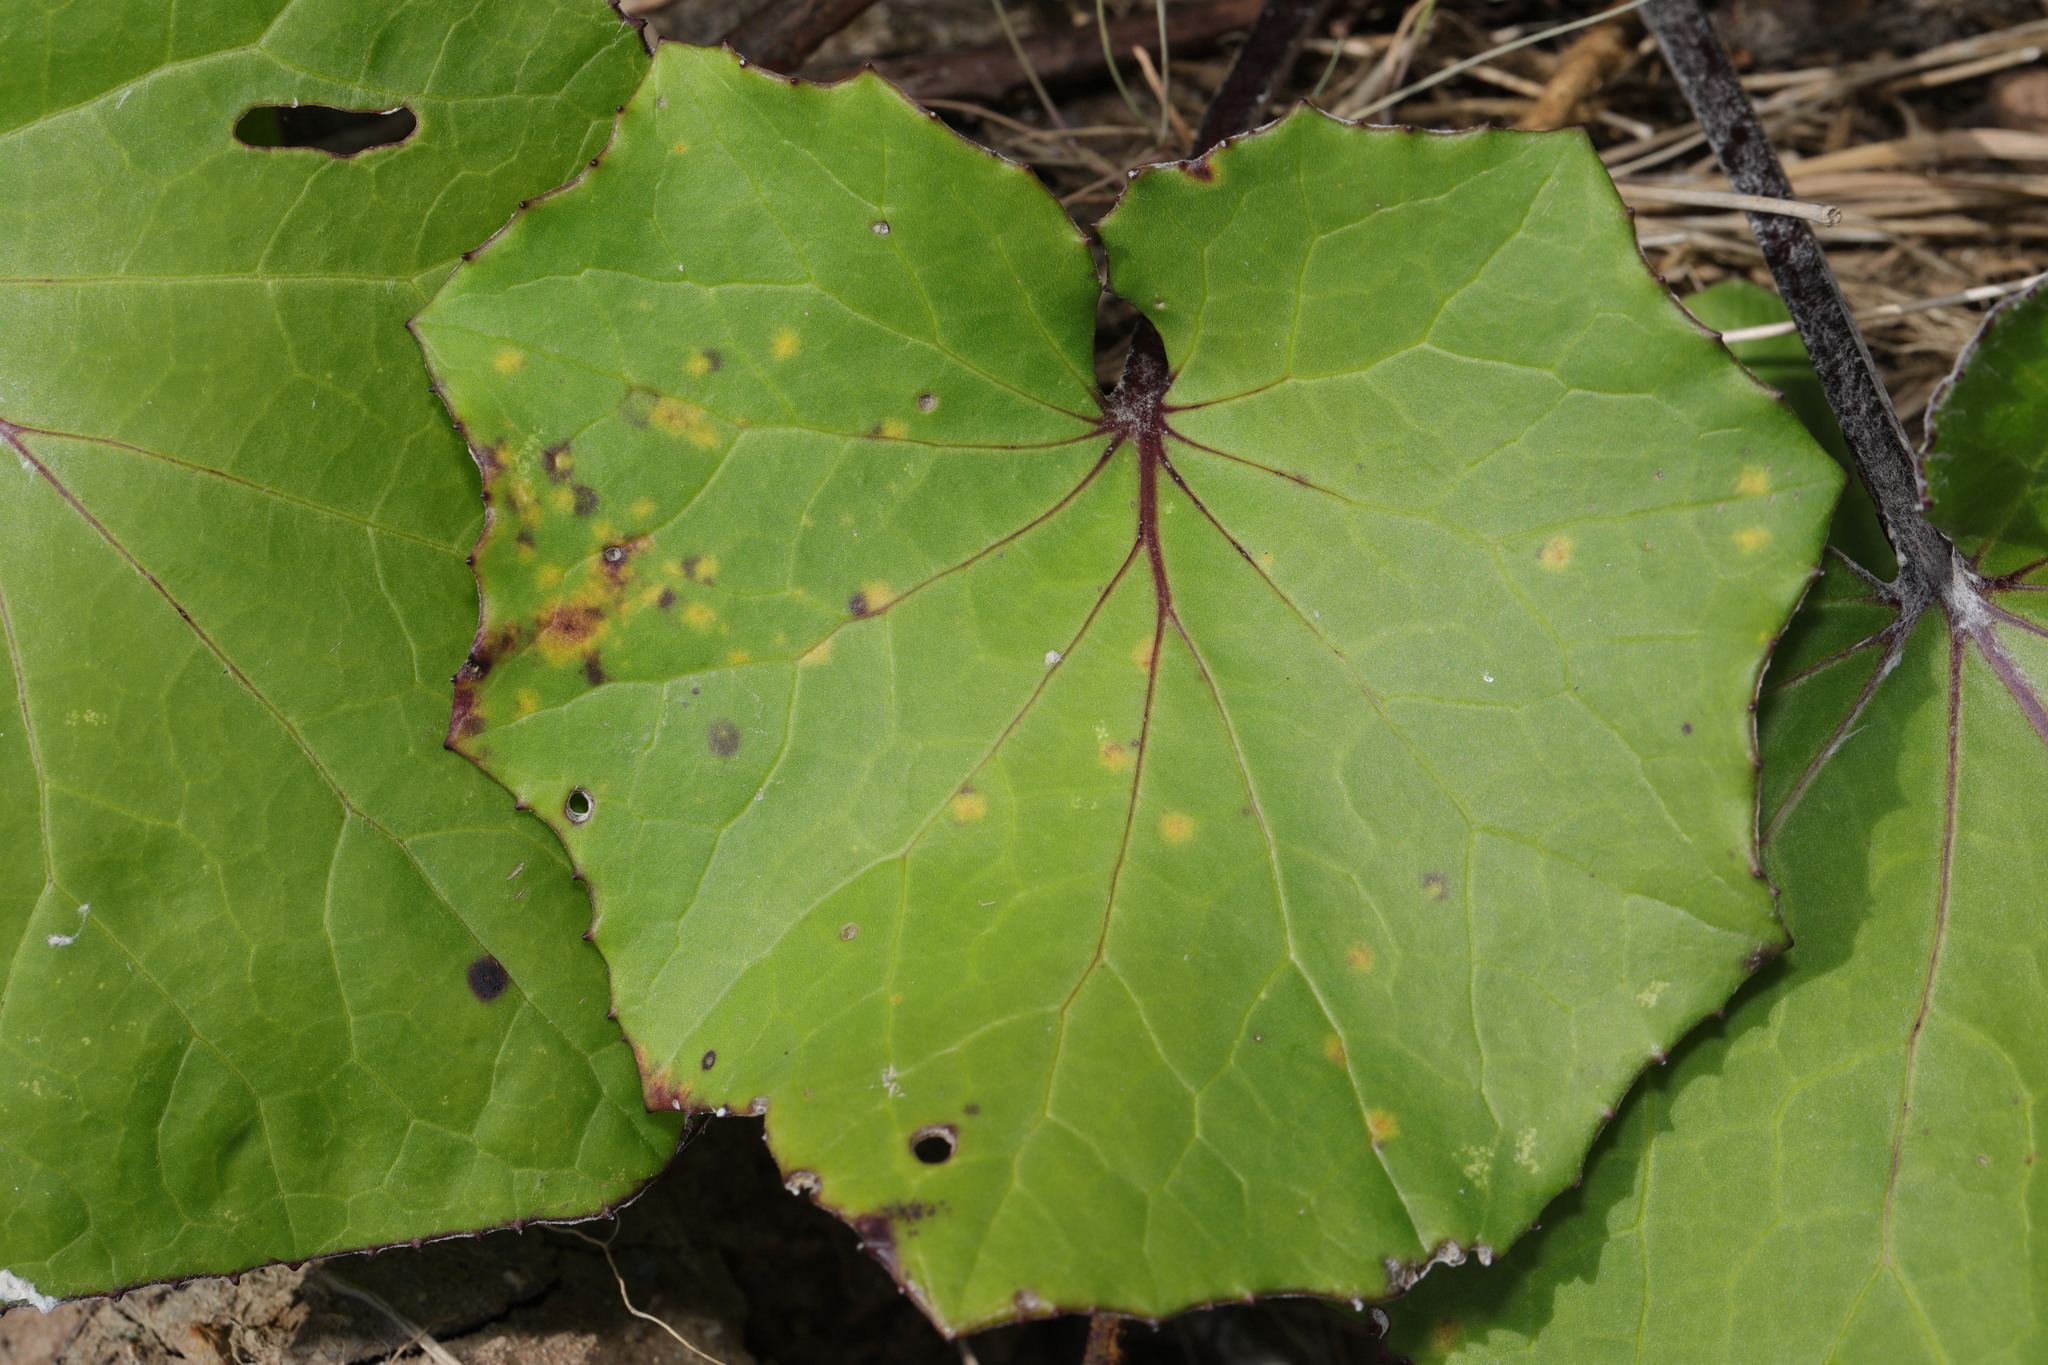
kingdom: Fungi
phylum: Basidiomycota
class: Pucciniomycetes
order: Pucciniales
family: Coleosporiaceae
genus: Coleosporium
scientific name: Coleosporium senecionis
